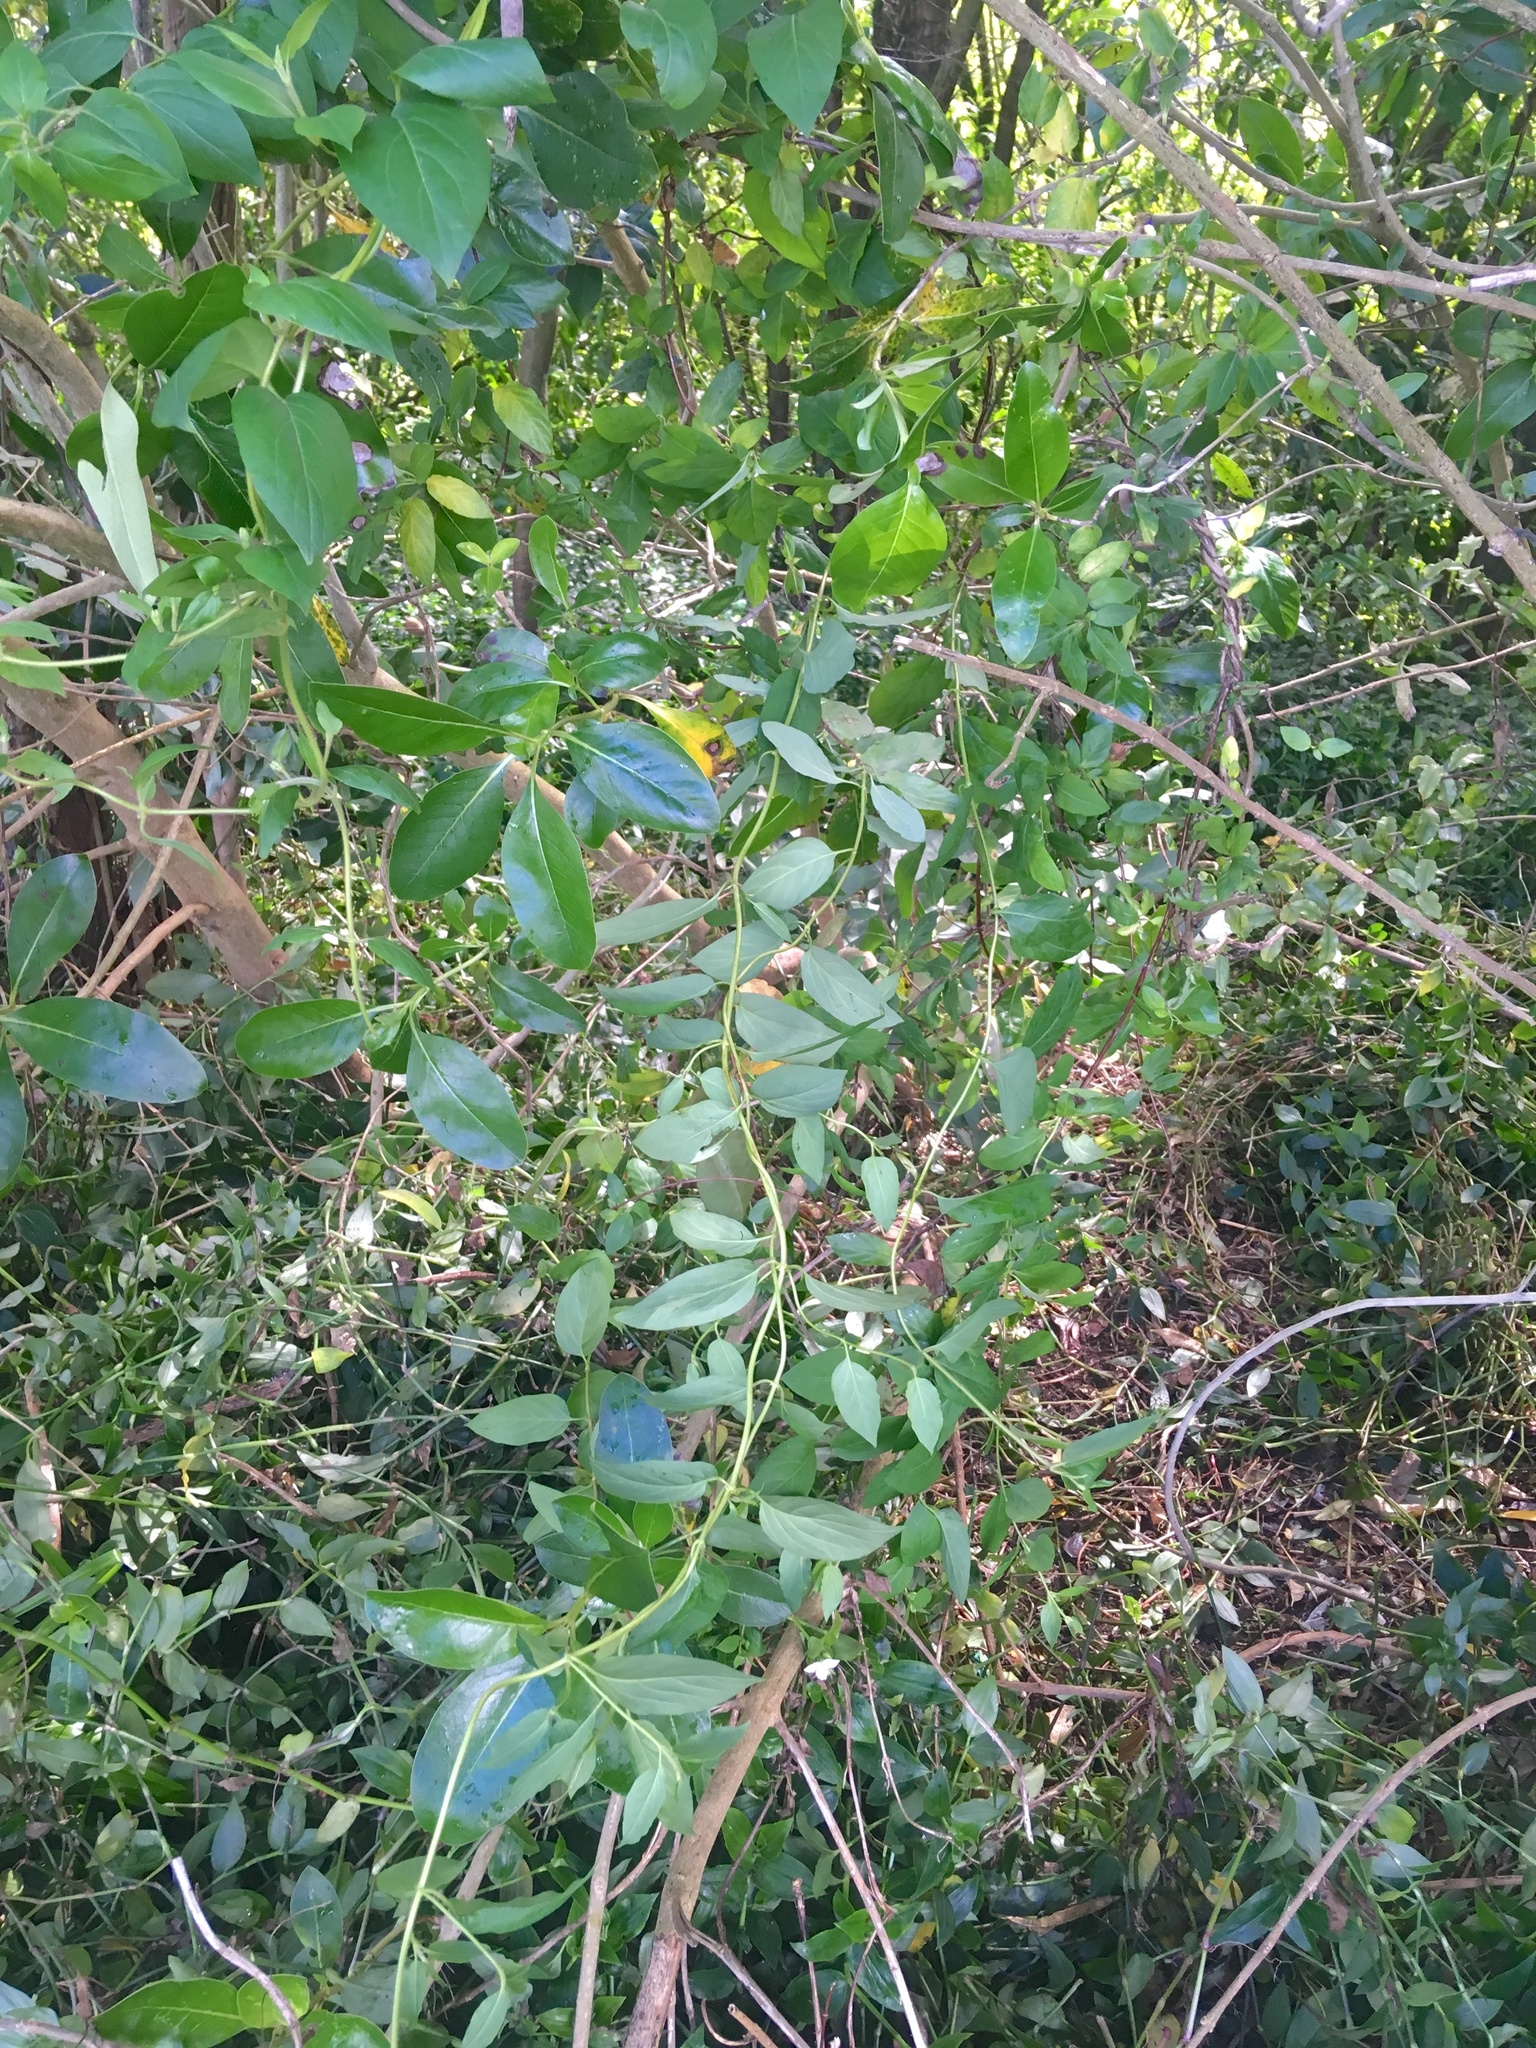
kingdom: Plantae
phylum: Tracheophyta
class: Magnoliopsida
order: Dipsacales
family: Caprifoliaceae
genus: Lonicera
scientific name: Lonicera japonica
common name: Japanese honeysuckle
